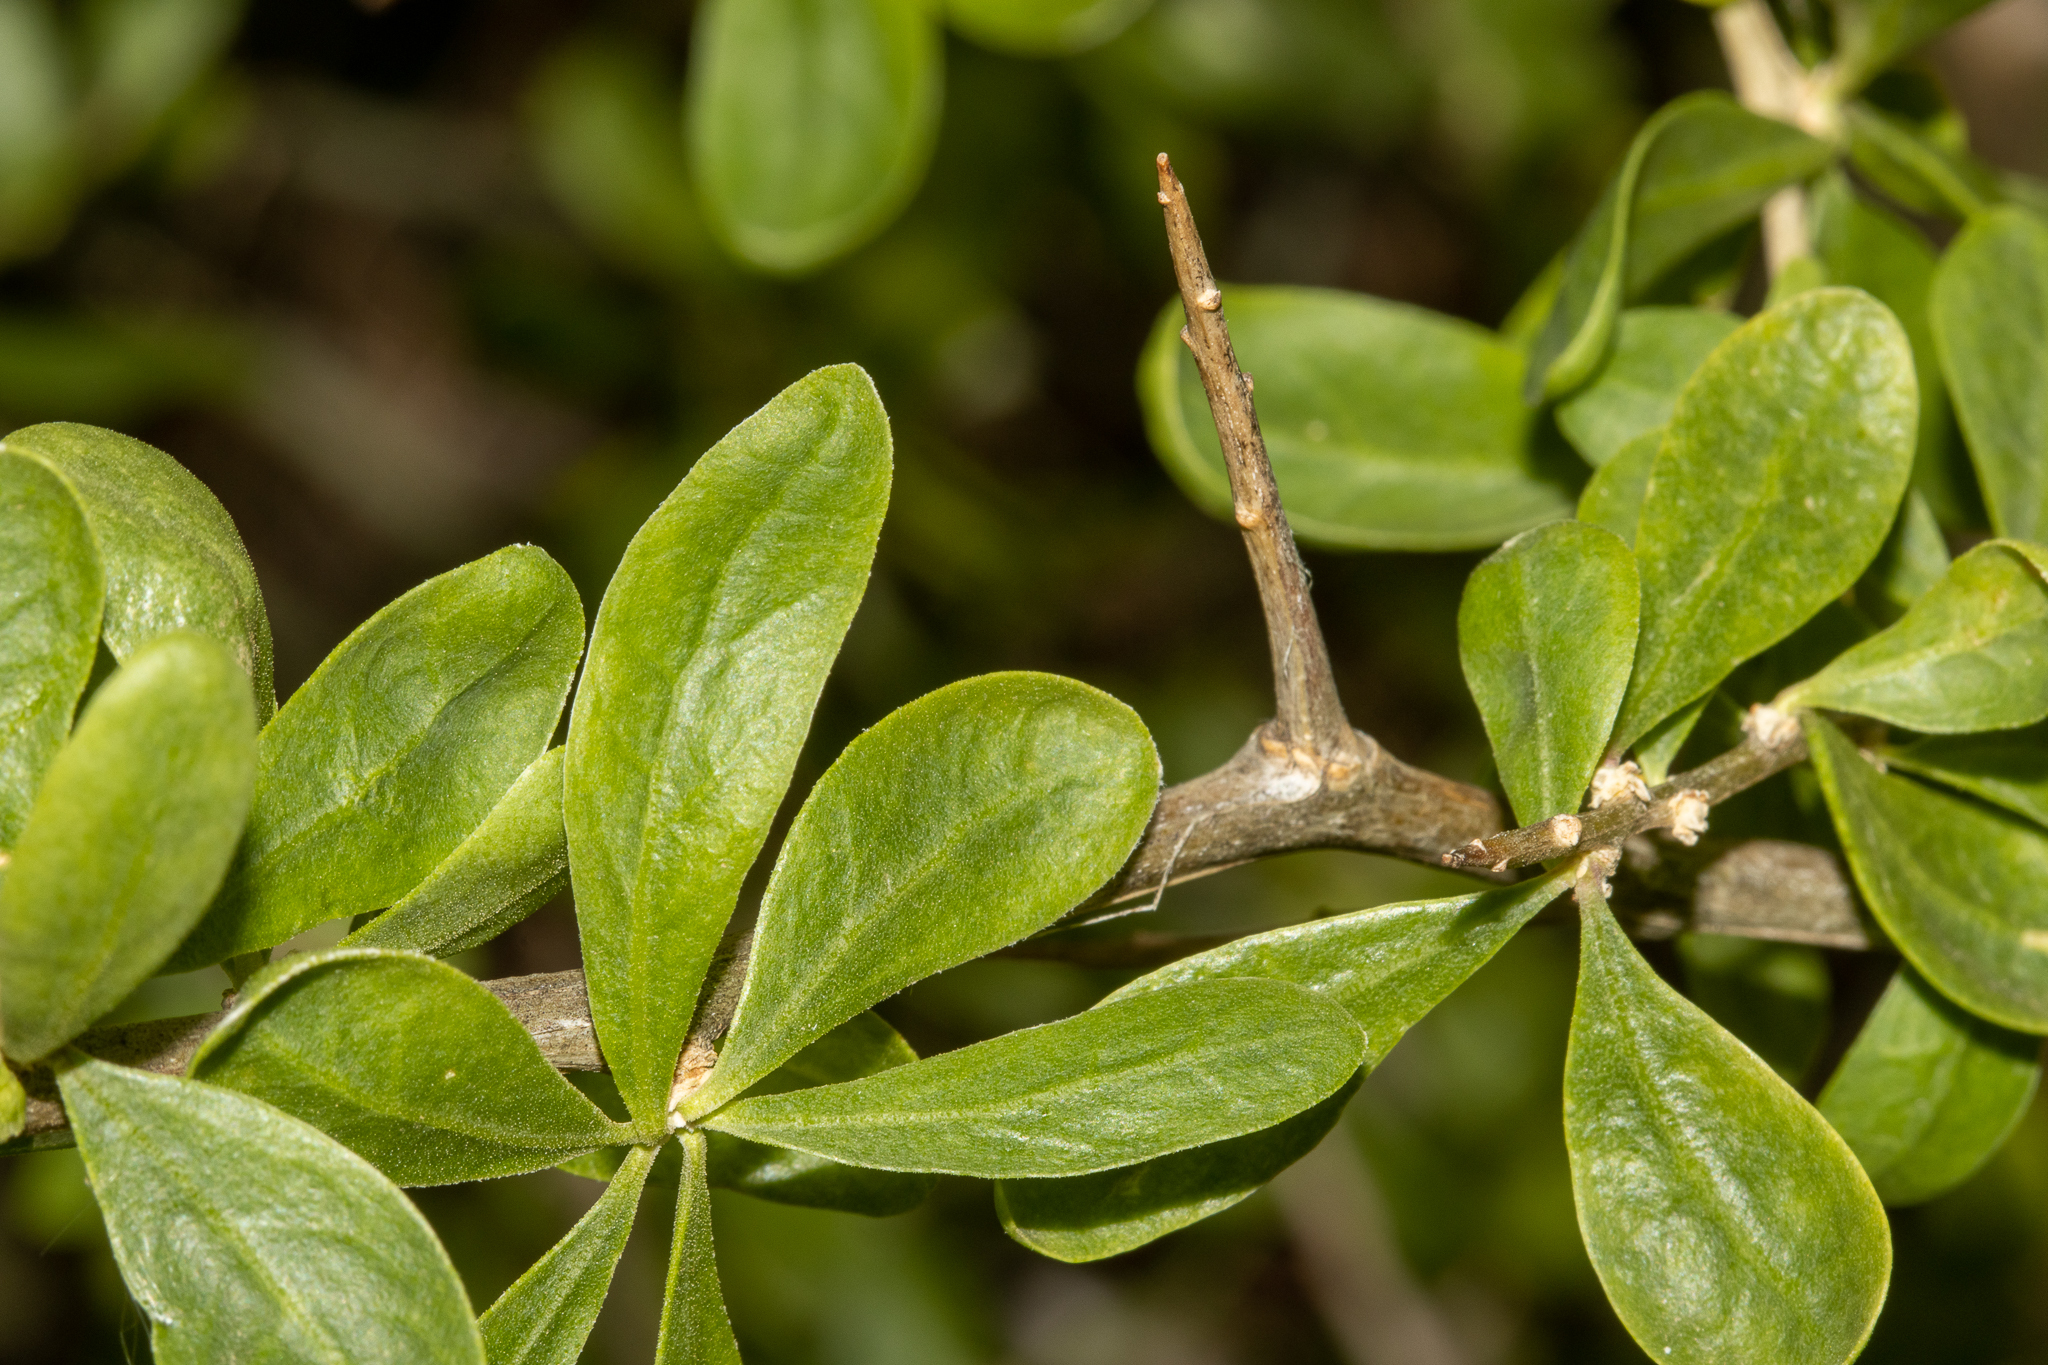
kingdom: Plantae
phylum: Tracheophyta
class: Magnoliopsida
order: Solanales
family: Solanaceae
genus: Lycium
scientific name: Lycium ferocissimum
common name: African boxthorn
